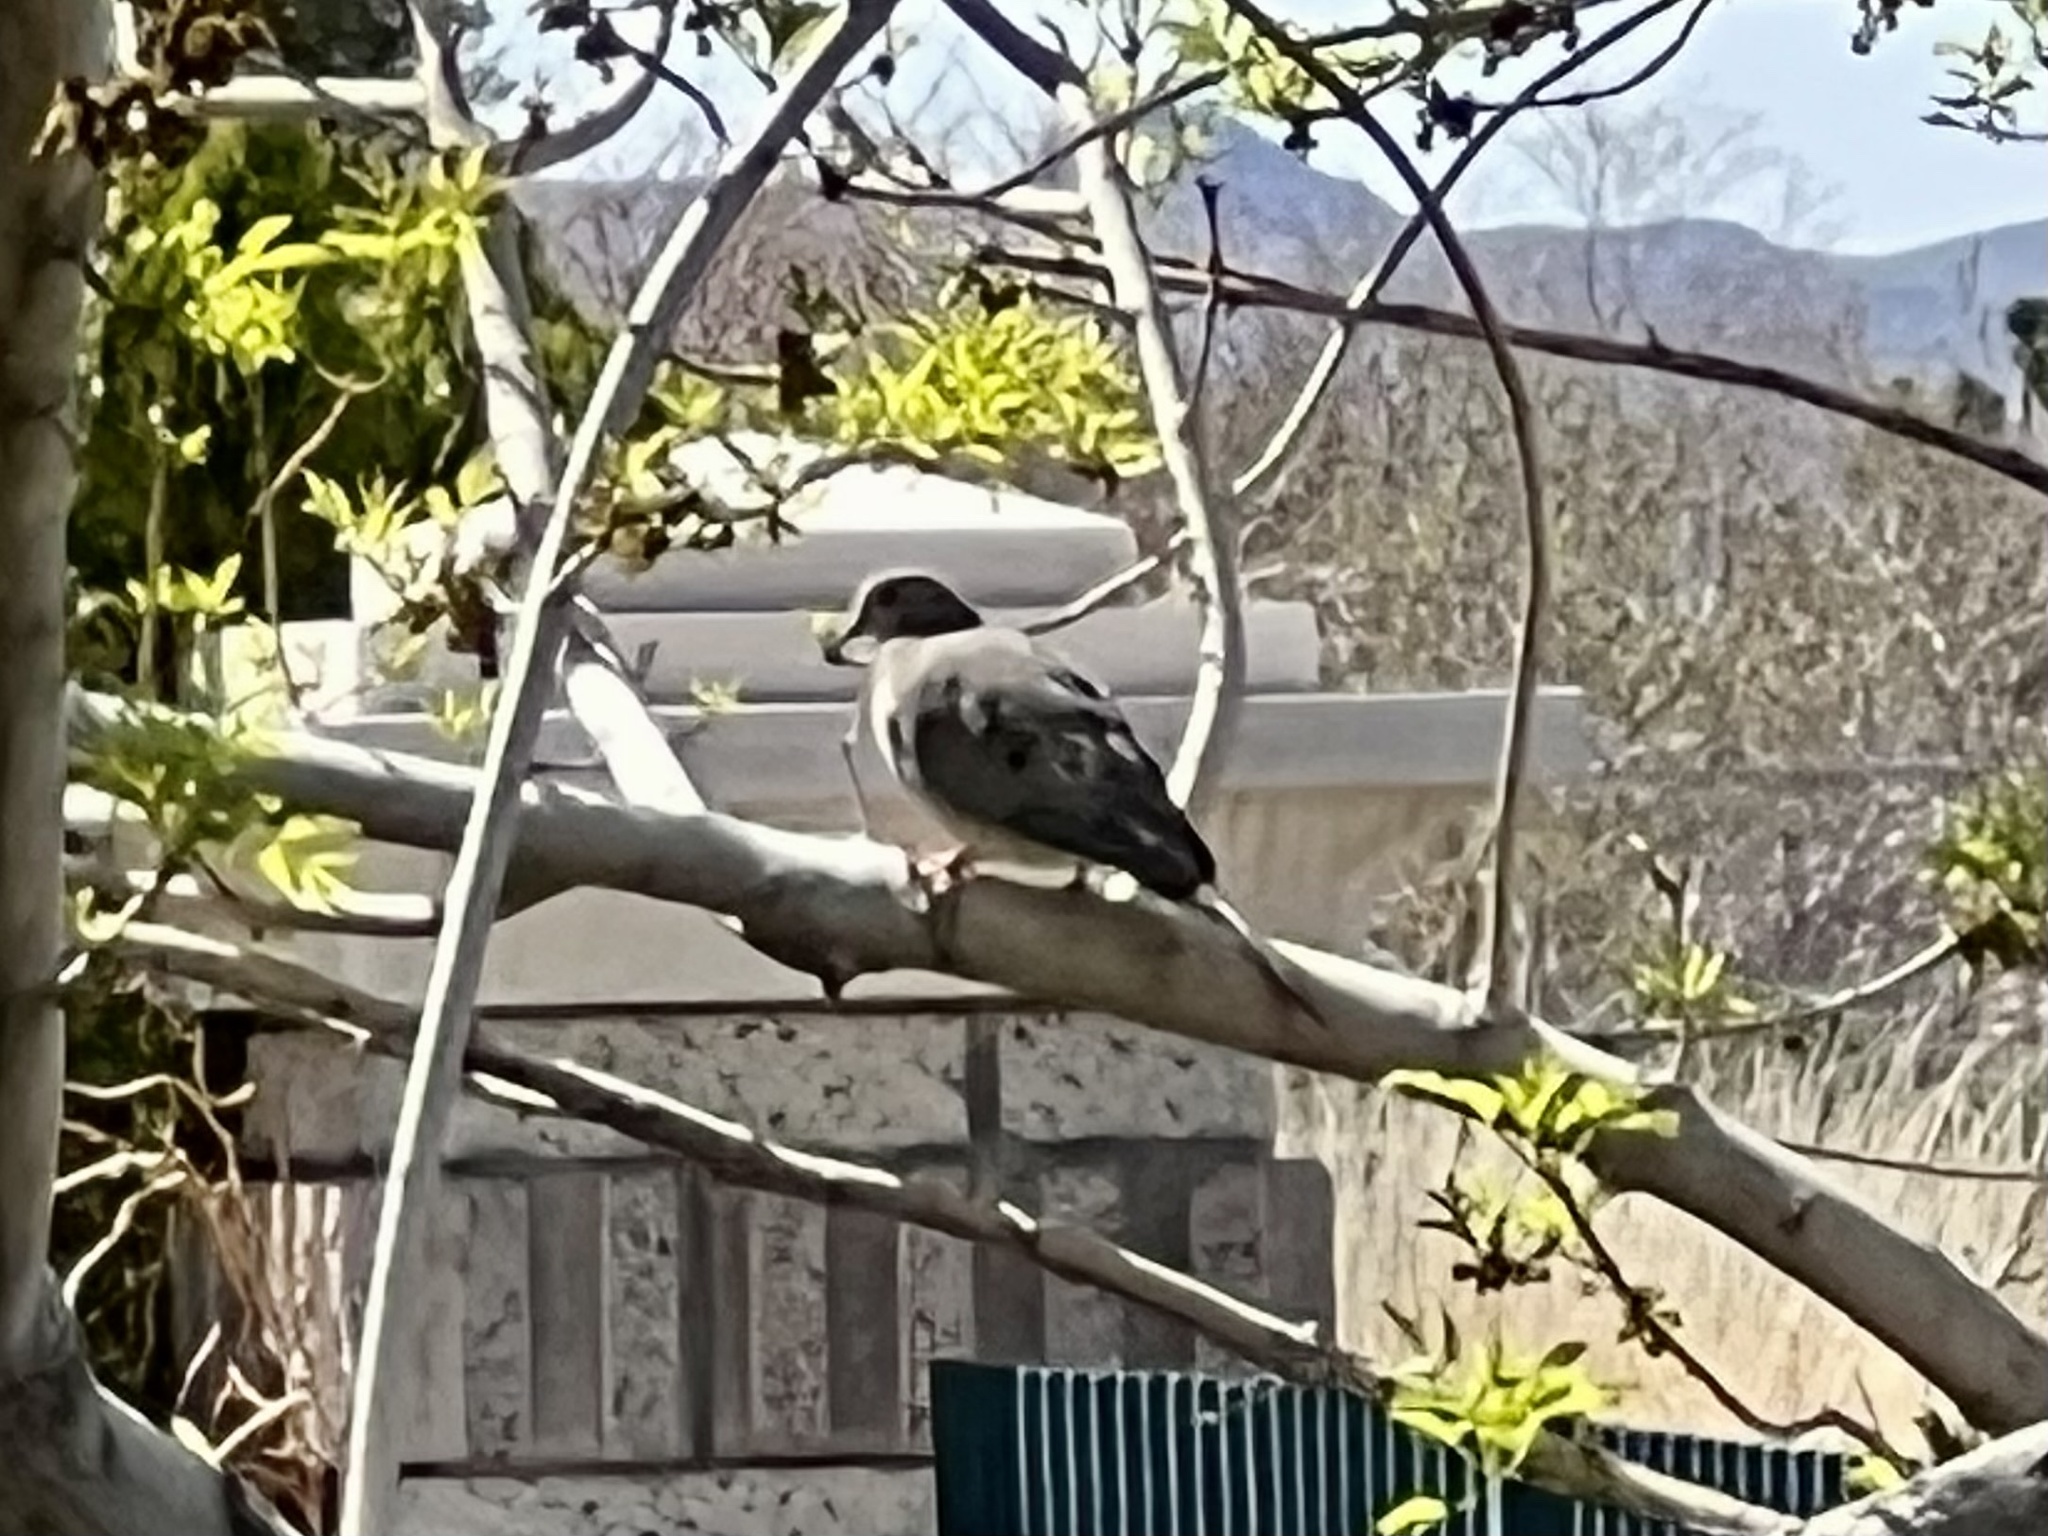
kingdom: Animalia
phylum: Chordata
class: Aves
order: Columbiformes
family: Columbidae
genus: Zenaida
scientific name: Zenaida macroura
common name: Mourning dove
